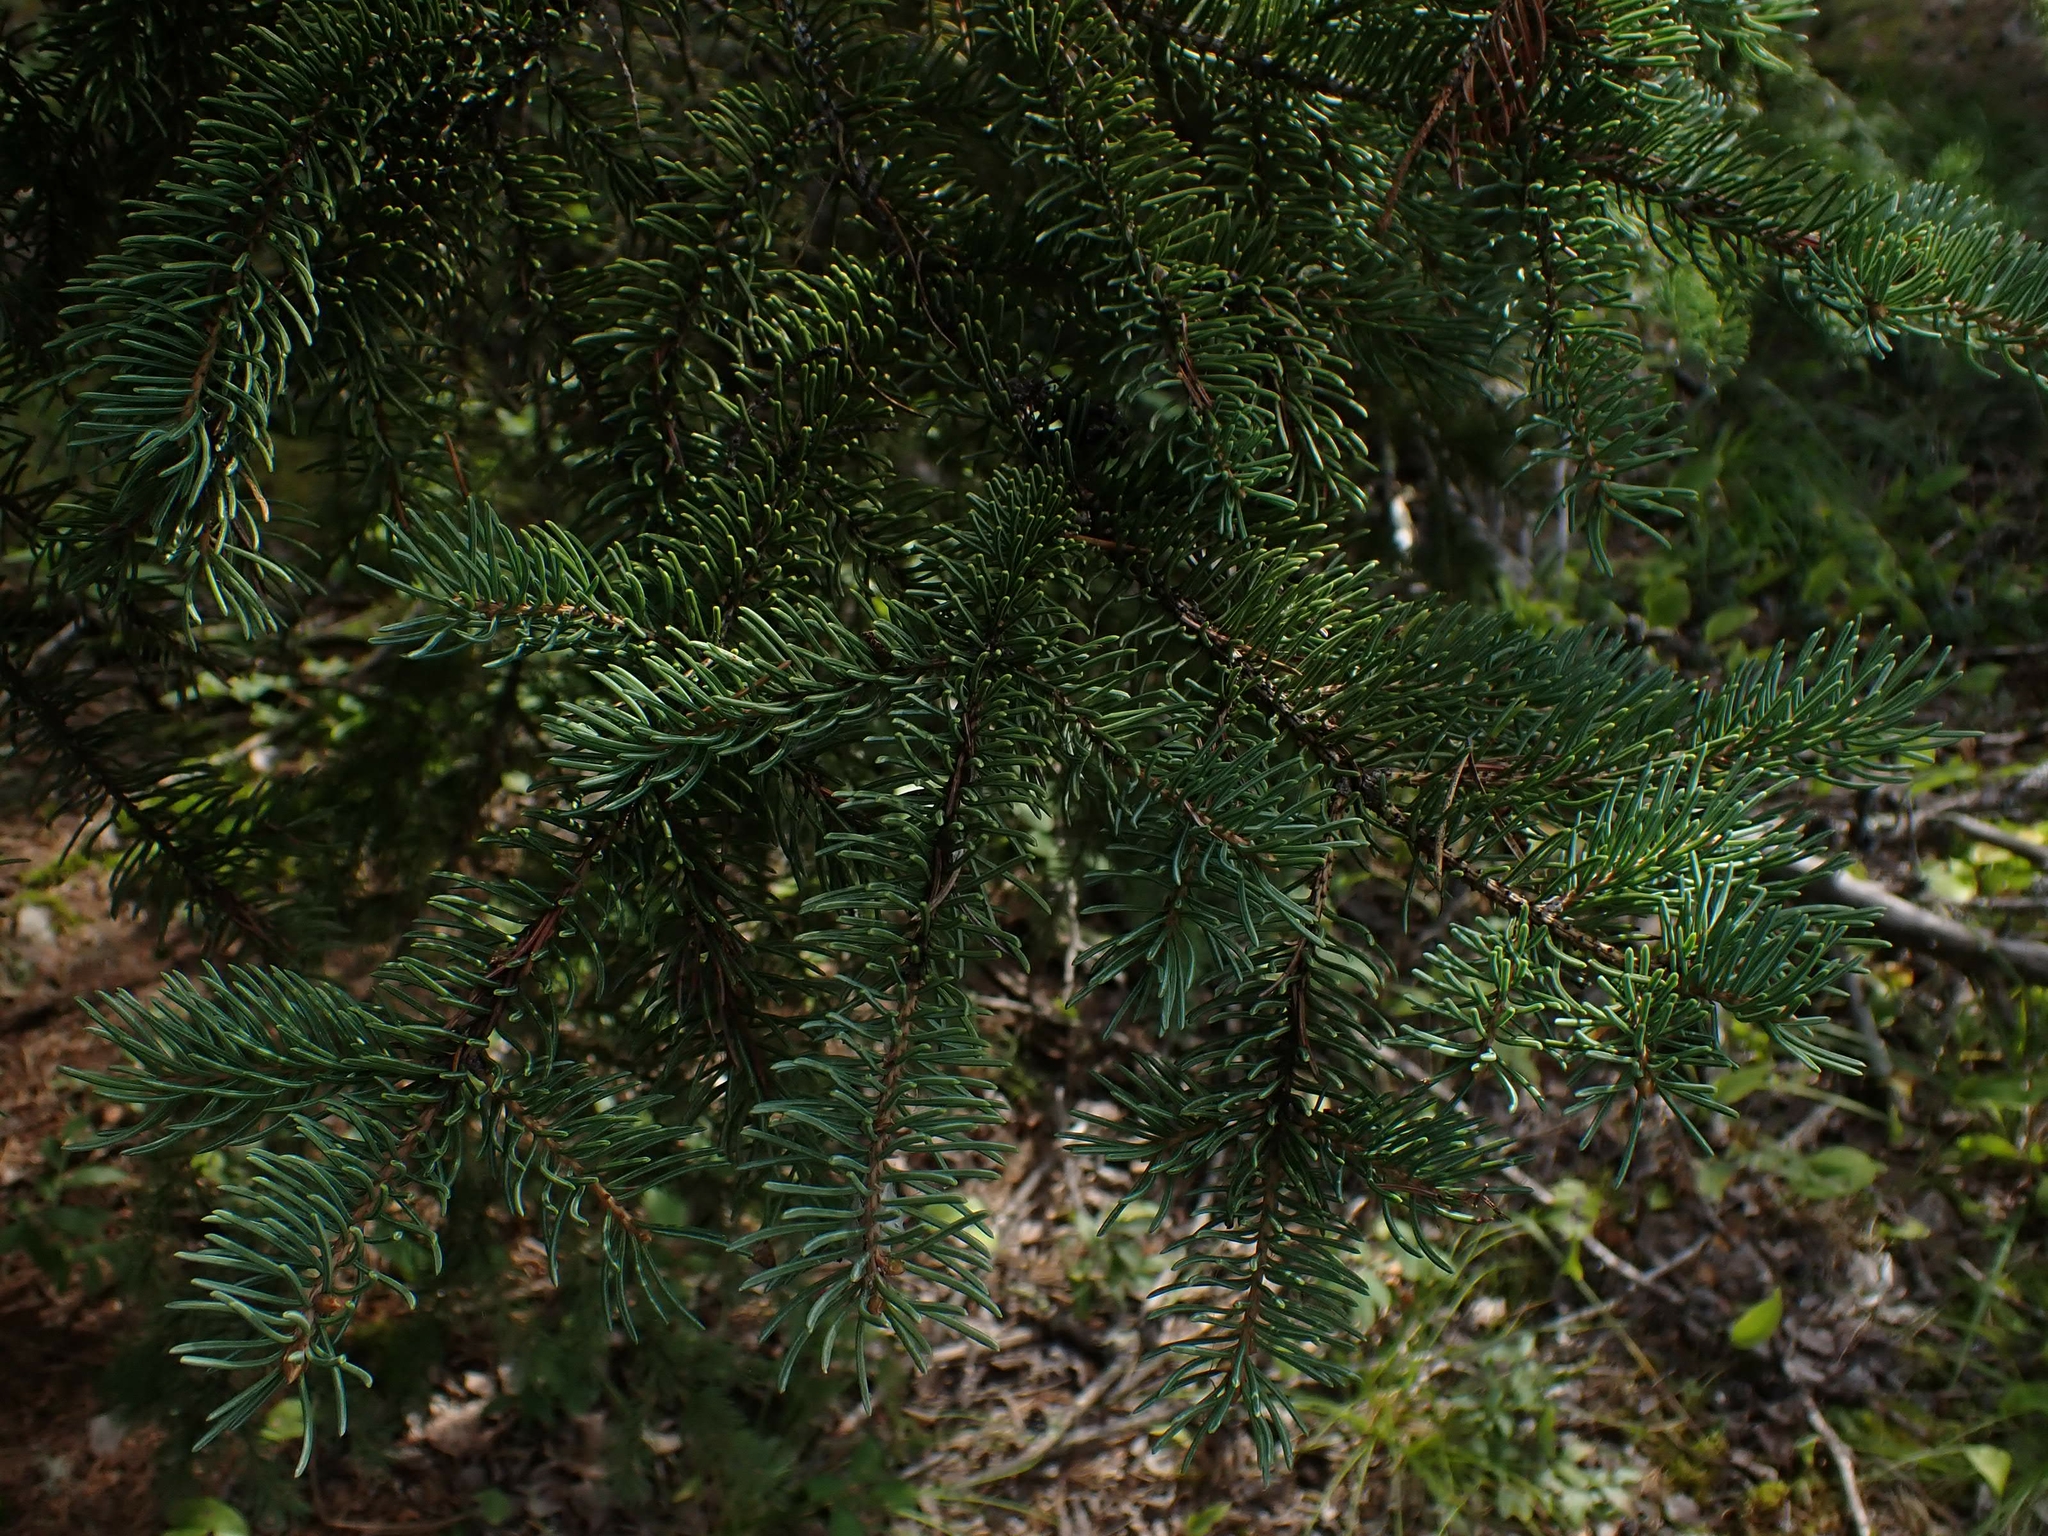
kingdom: Plantae
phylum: Tracheophyta
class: Pinopsida
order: Pinales
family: Pinaceae
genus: Picea
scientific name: Picea glauca
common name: White spruce
